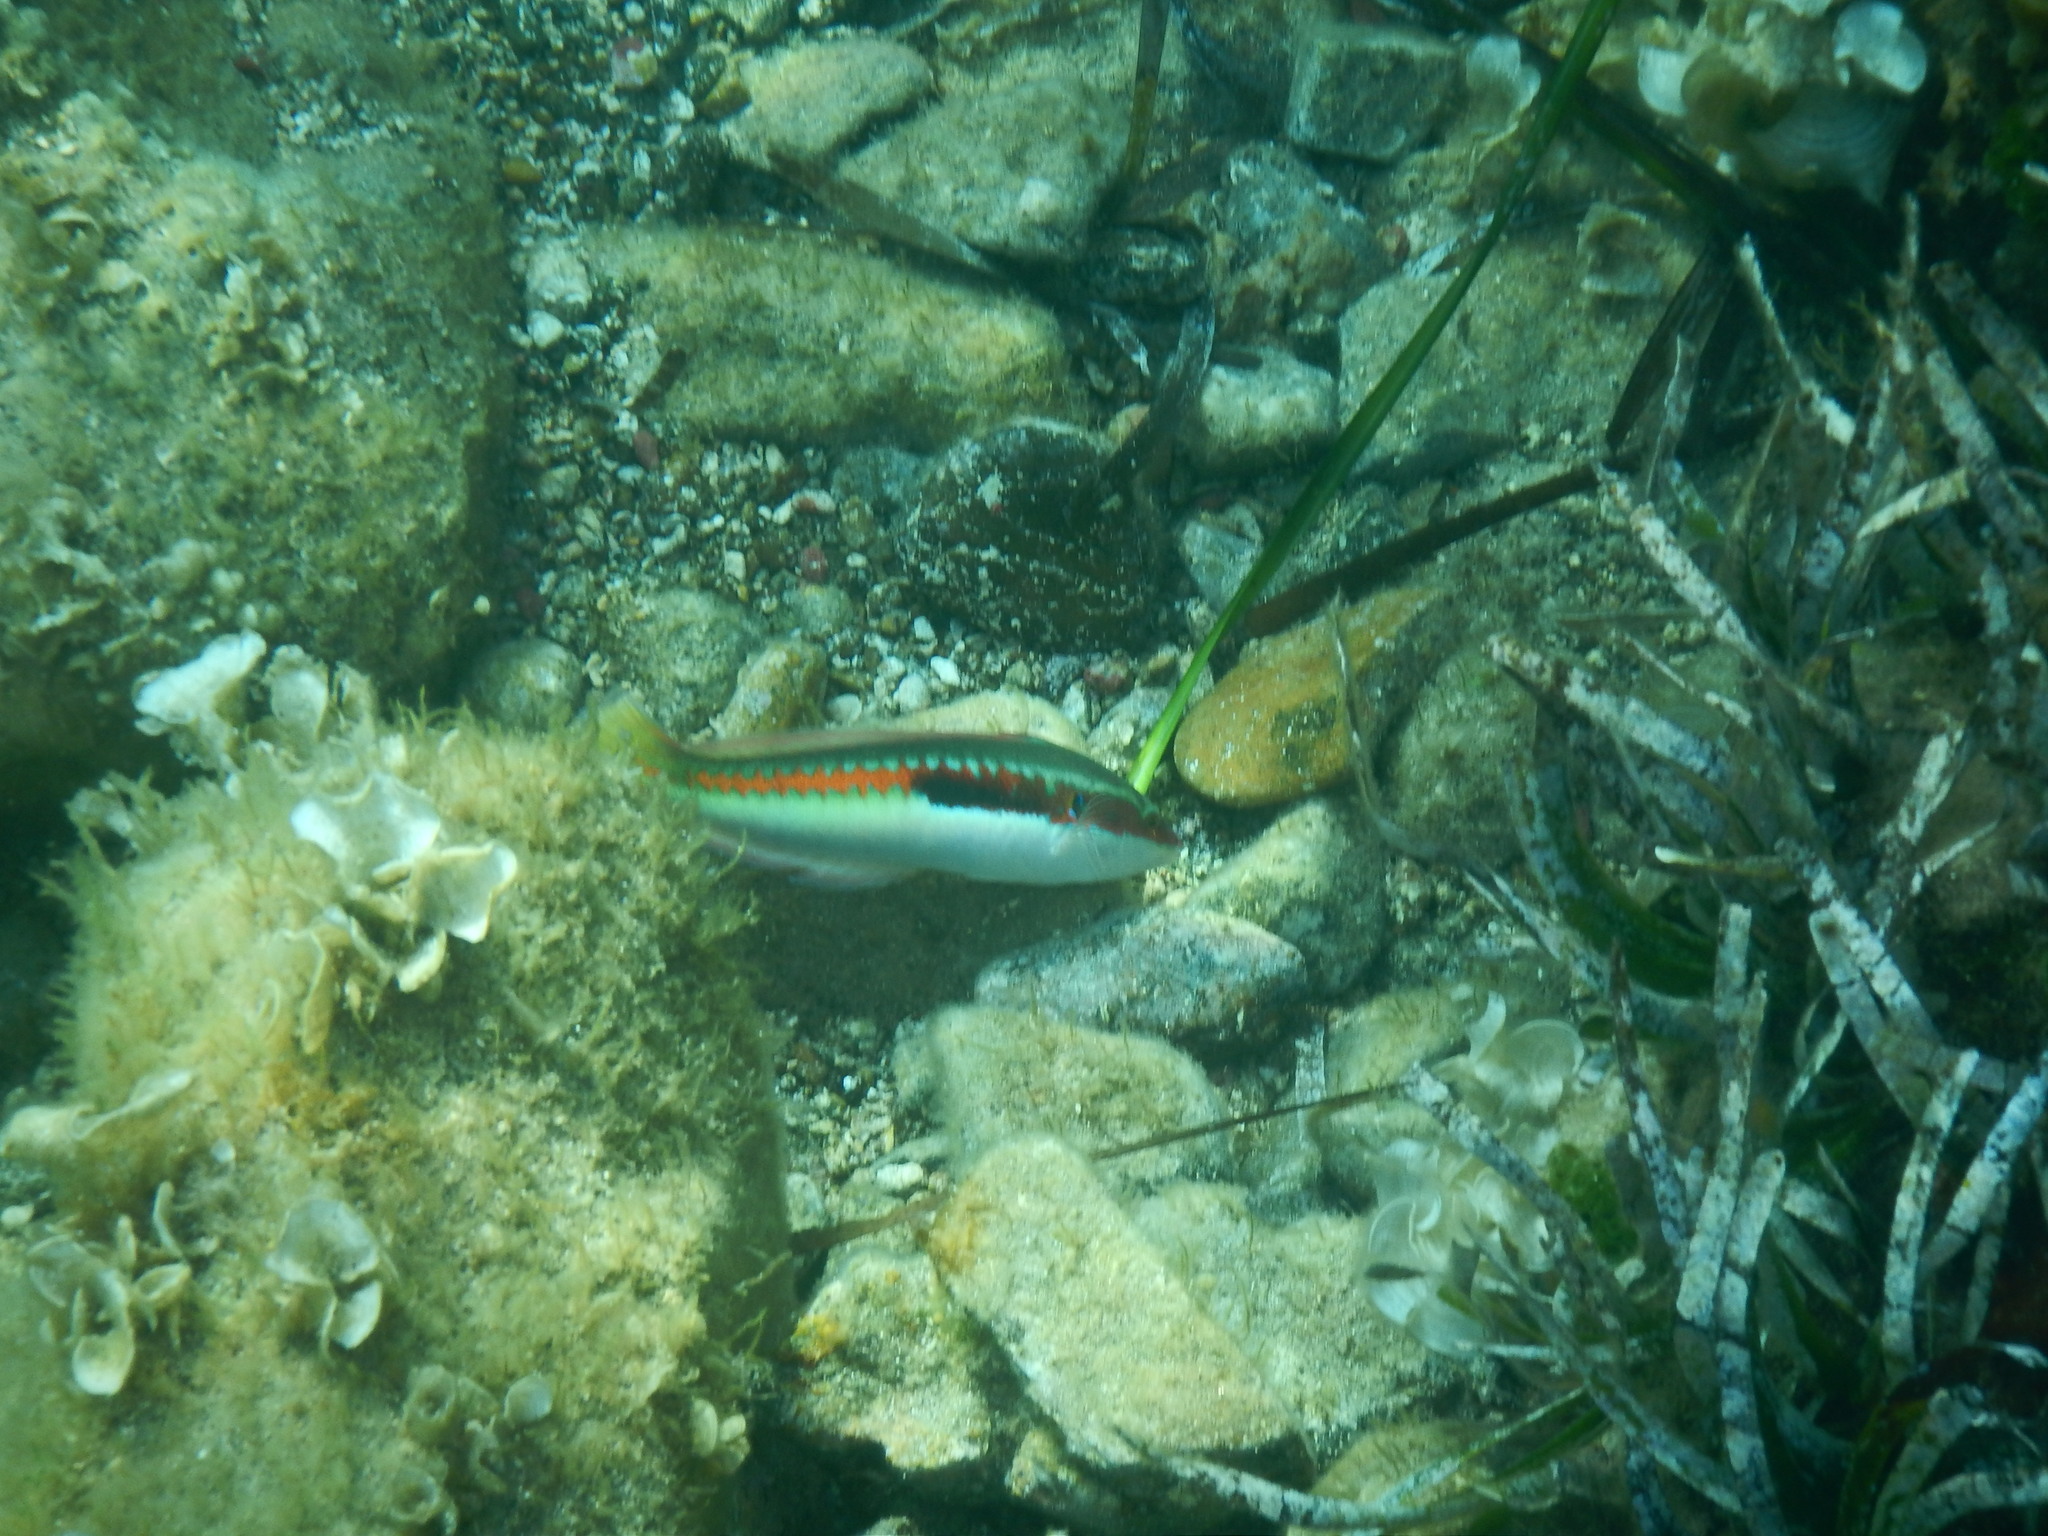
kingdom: Animalia
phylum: Chordata
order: Perciformes
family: Labridae
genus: Coris
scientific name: Coris julis
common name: Rainbow wrasse
